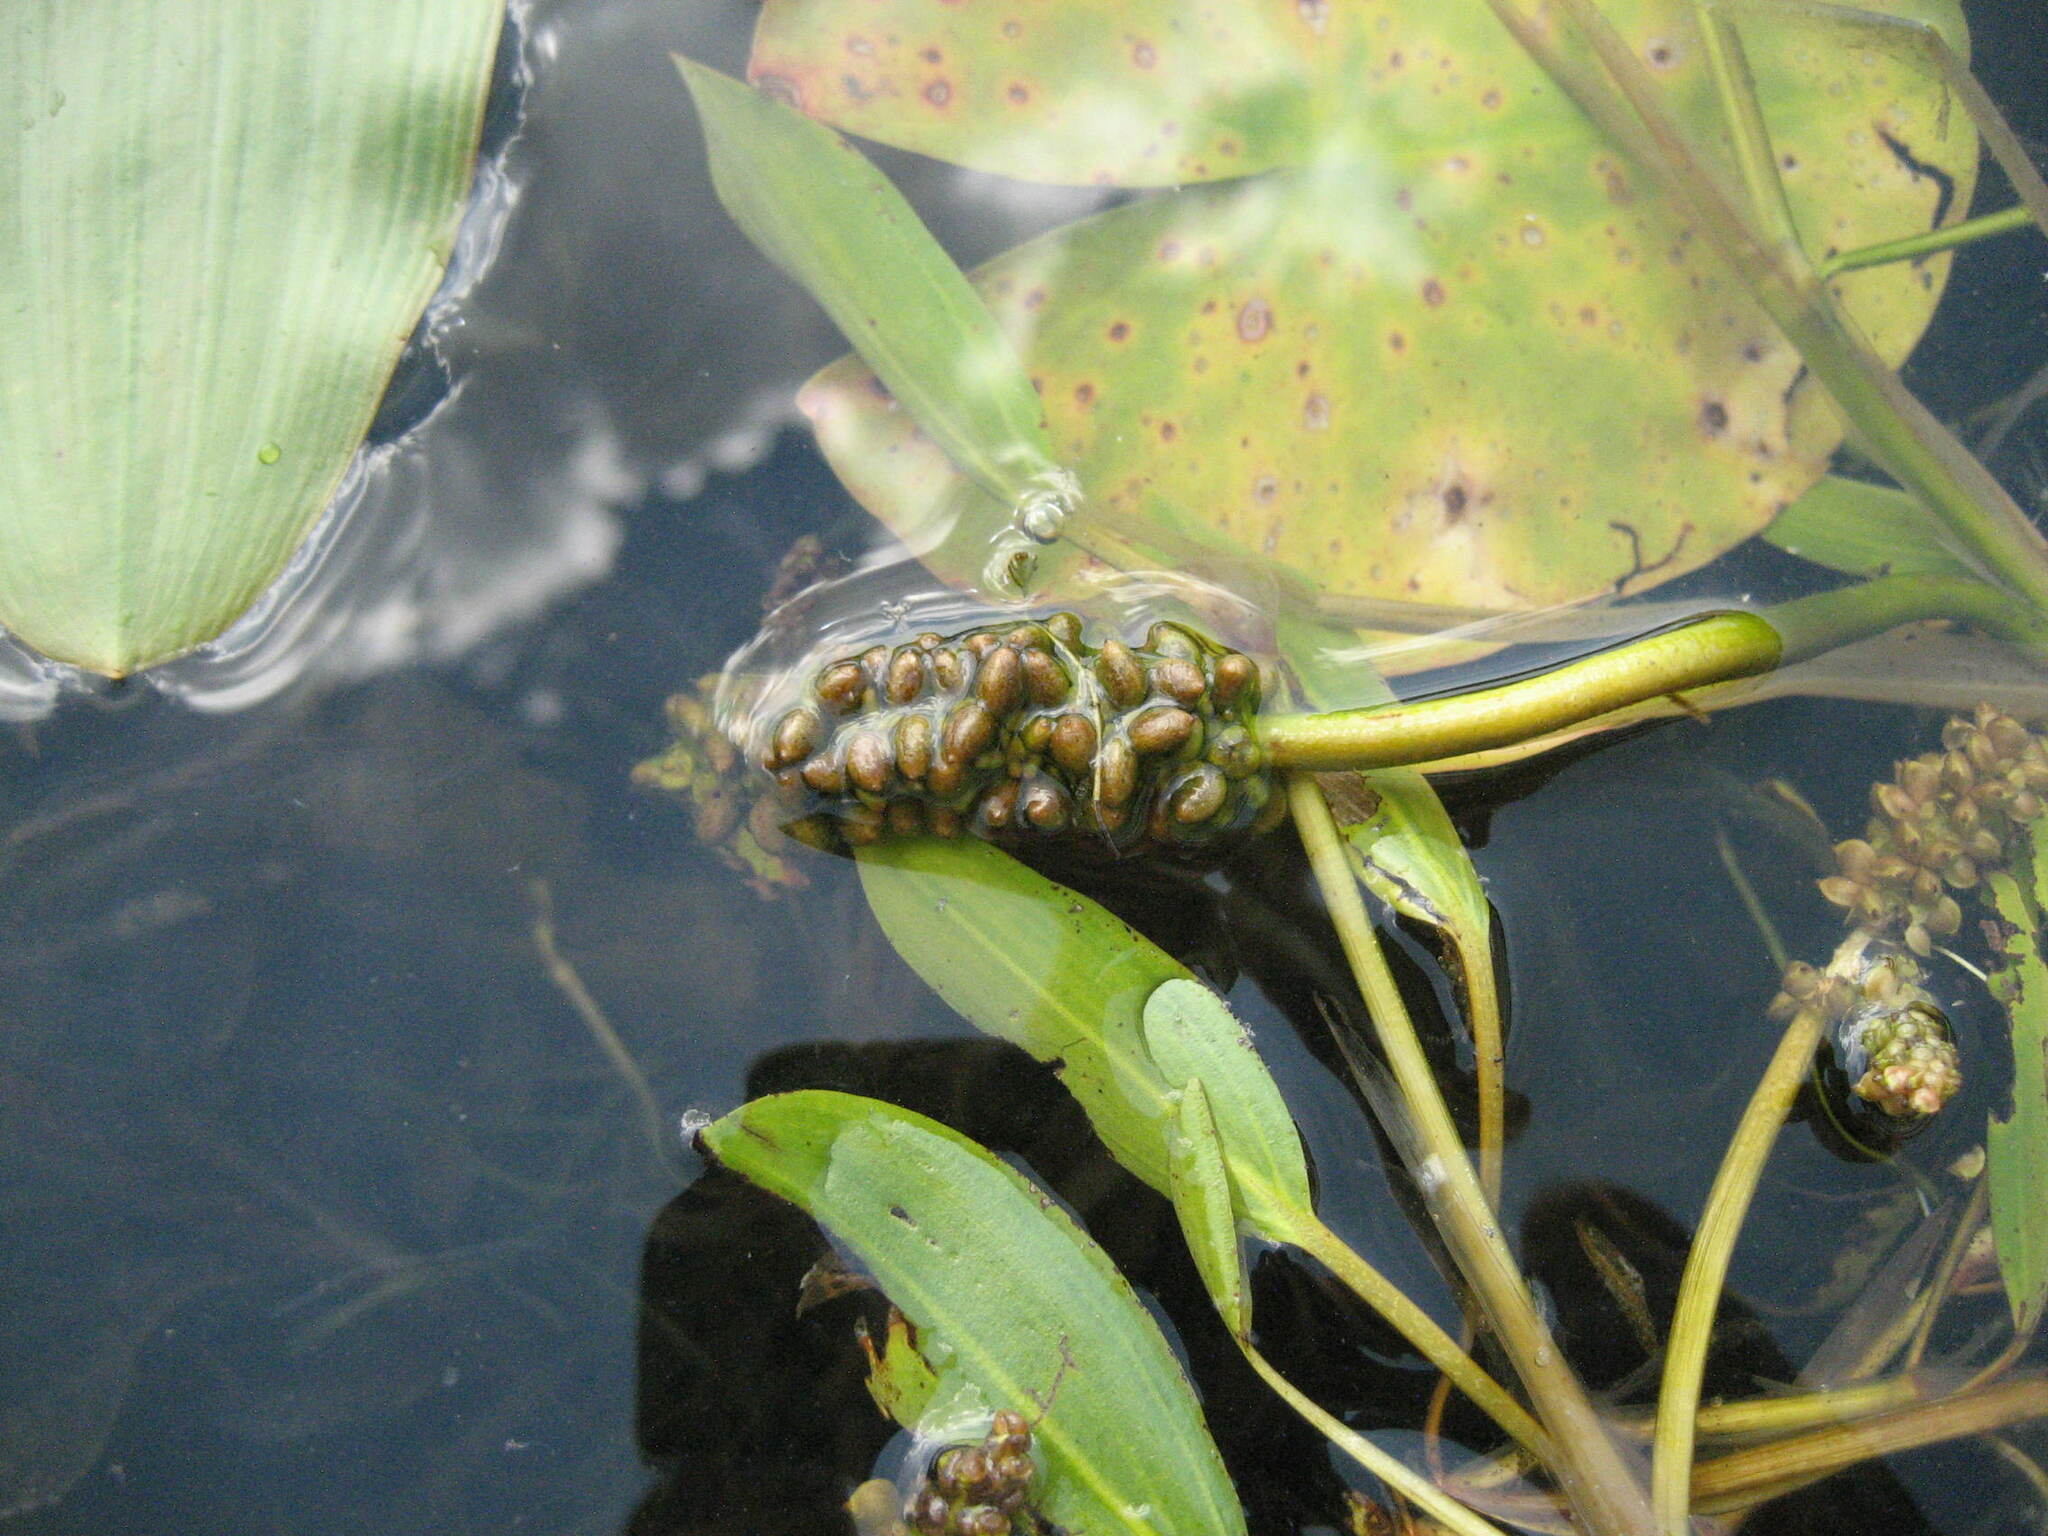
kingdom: Plantae
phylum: Tracheophyta
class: Liliopsida
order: Alismatales
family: Potamogetonaceae
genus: Potamogeton
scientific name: Potamogeton natans
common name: Broad-leaved pondweed
